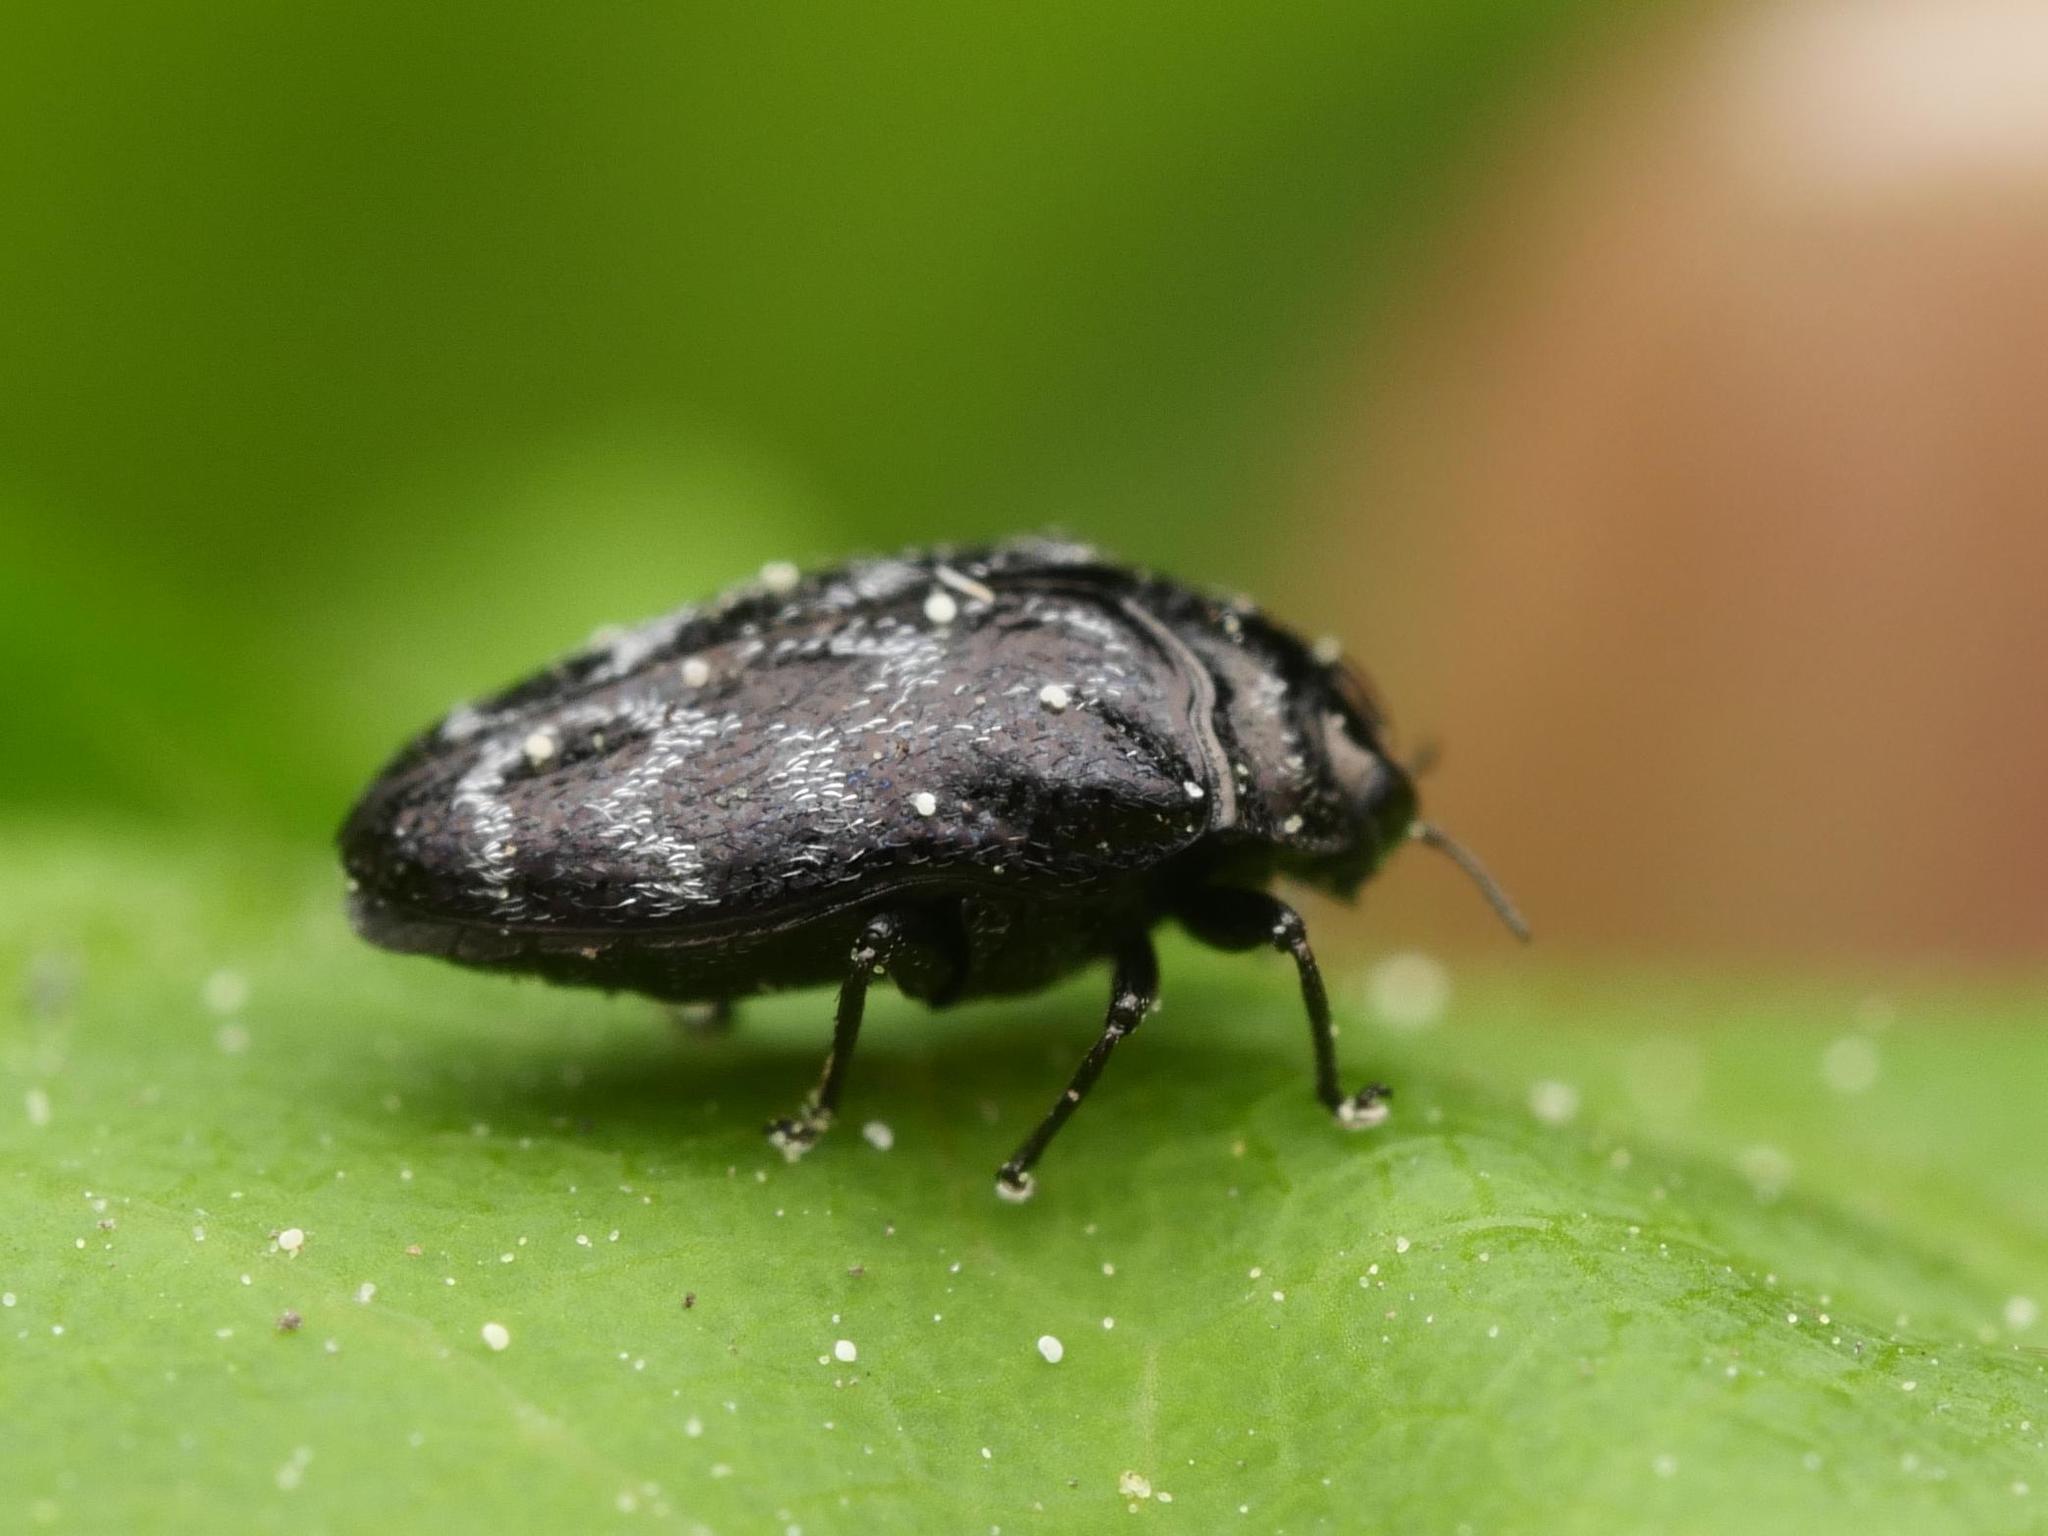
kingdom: Animalia
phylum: Arthropoda
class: Insecta
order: Coleoptera
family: Buprestidae
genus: Trachys
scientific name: Trachys minutus
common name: Metallic wood-boring beetle
